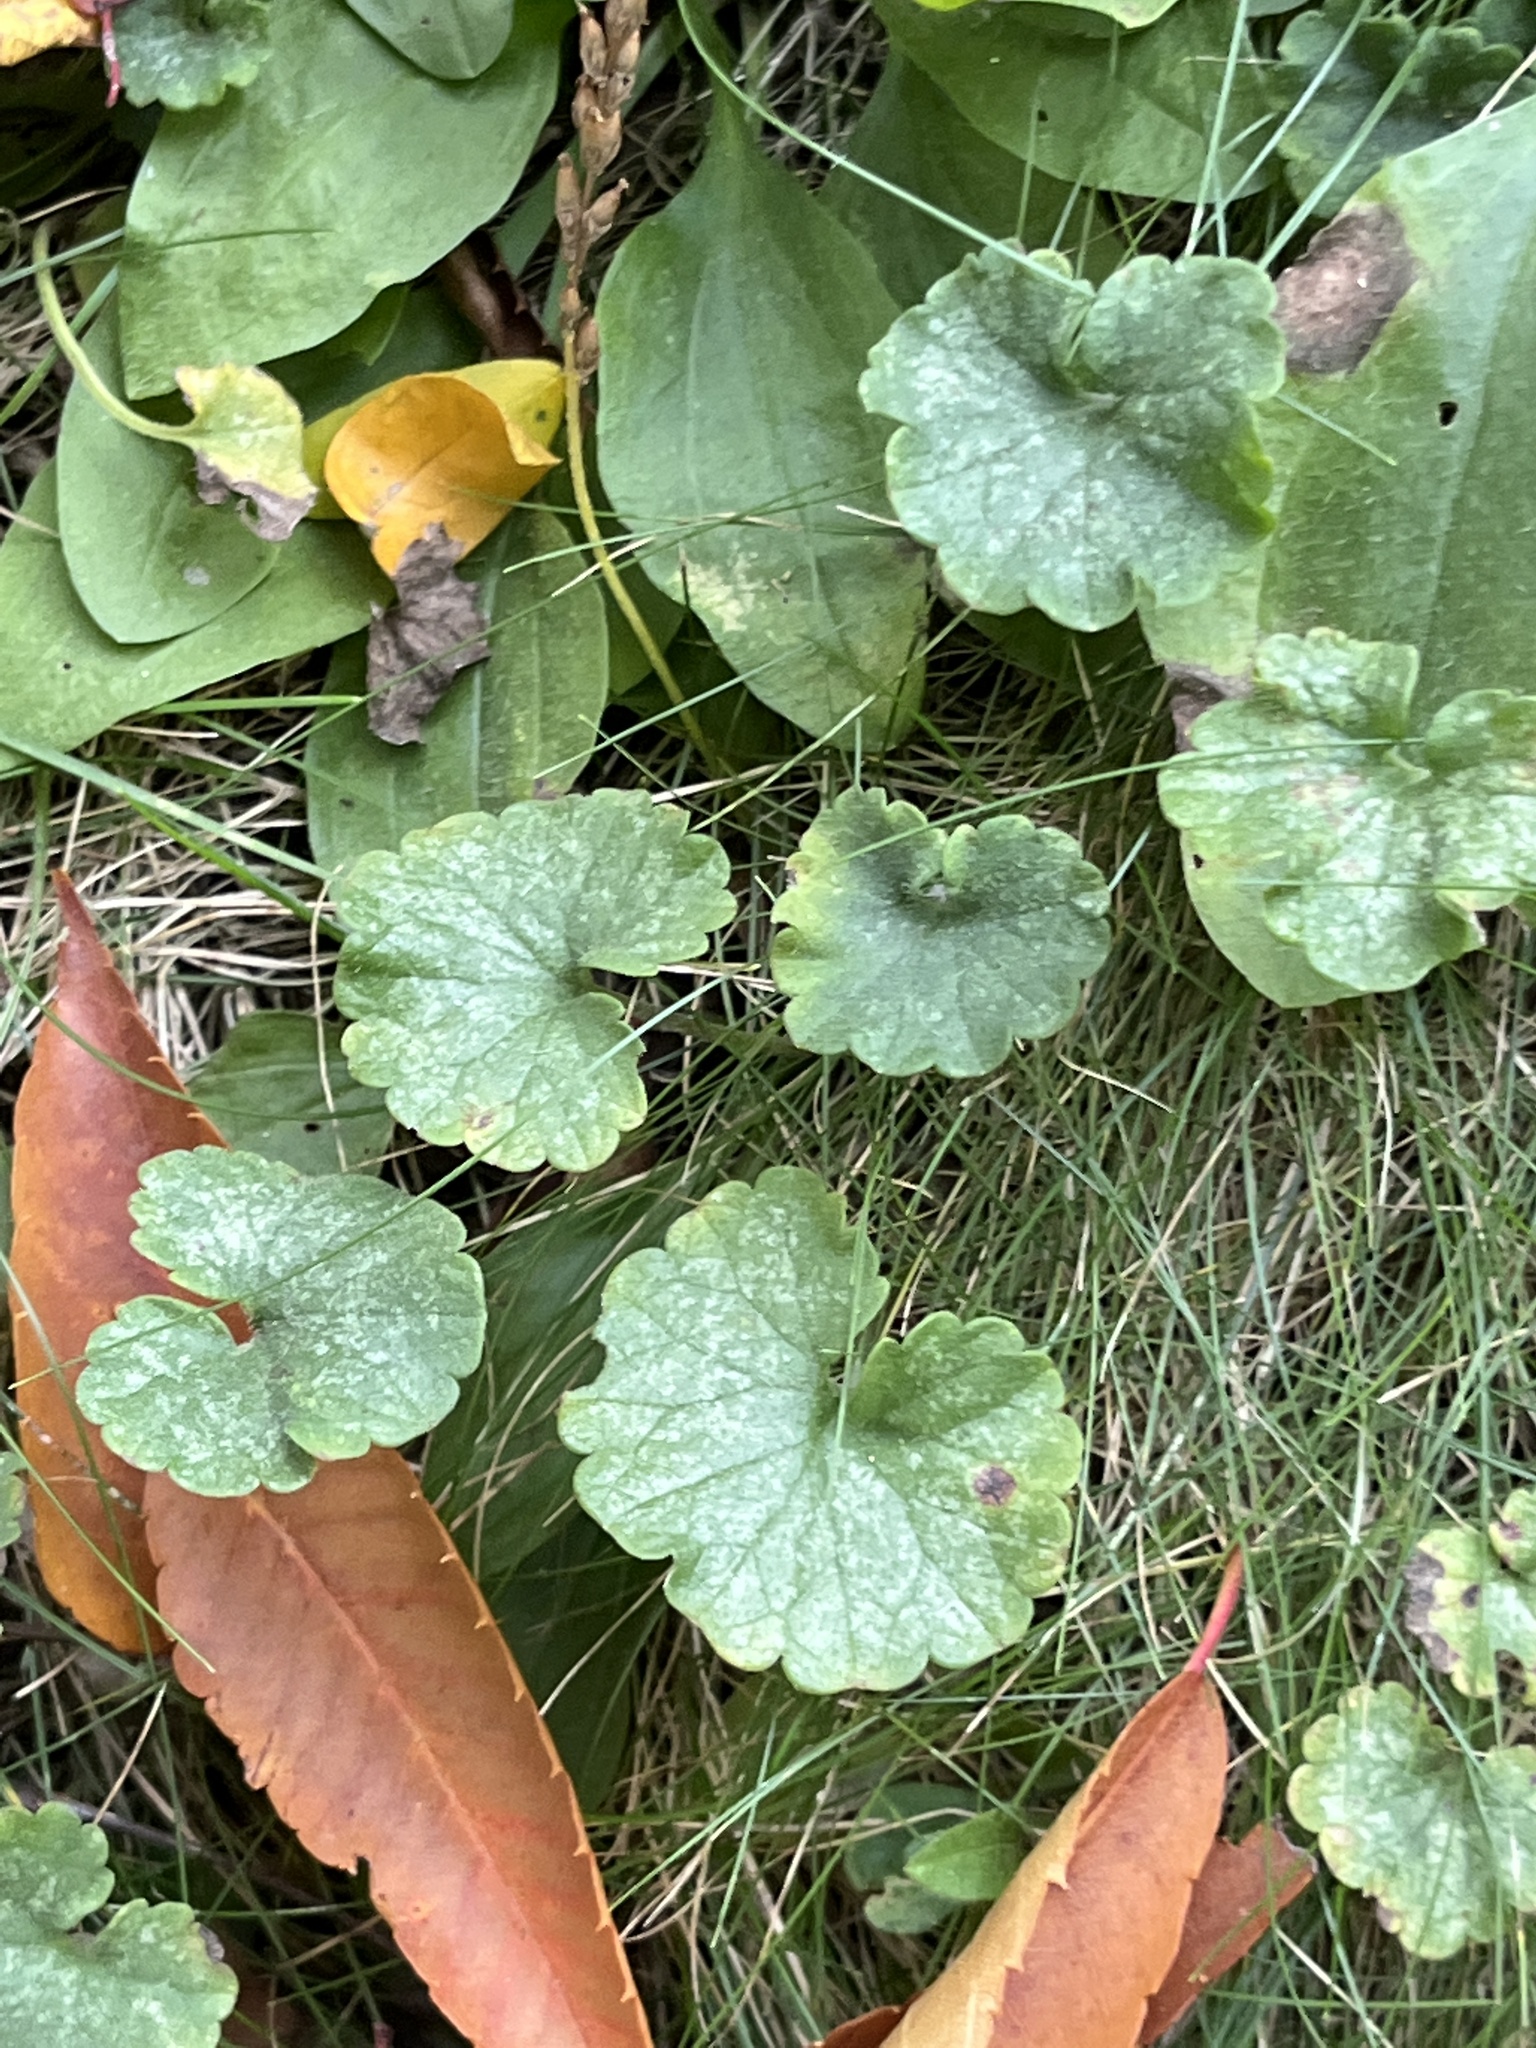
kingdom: Plantae
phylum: Tracheophyta
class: Magnoliopsida
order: Lamiales
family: Lamiaceae
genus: Glechoma
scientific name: Glechoma hederacea
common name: Ground ivy
